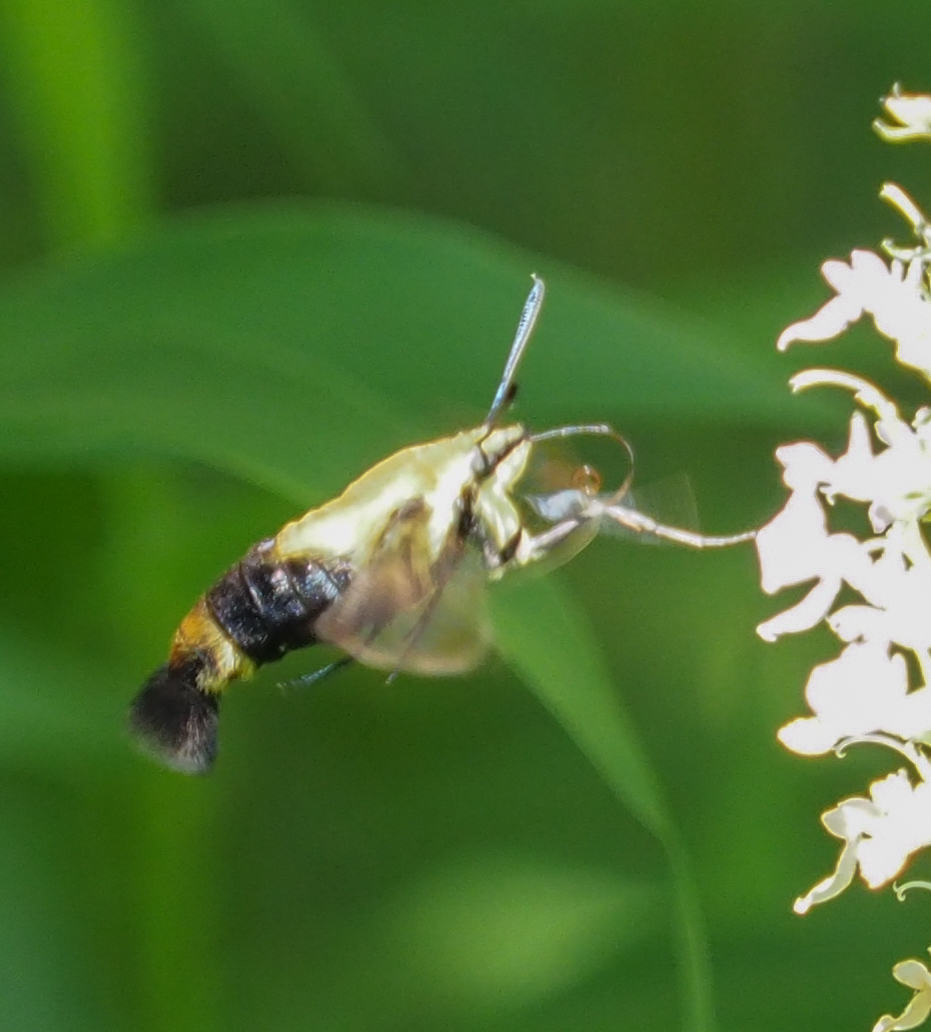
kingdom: Animalia
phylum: Arthropoda
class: Insecta
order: Lepidoptera
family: Sphingidae
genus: Hemaris
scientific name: Hemaris diffinis
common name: Bumblebee moth
